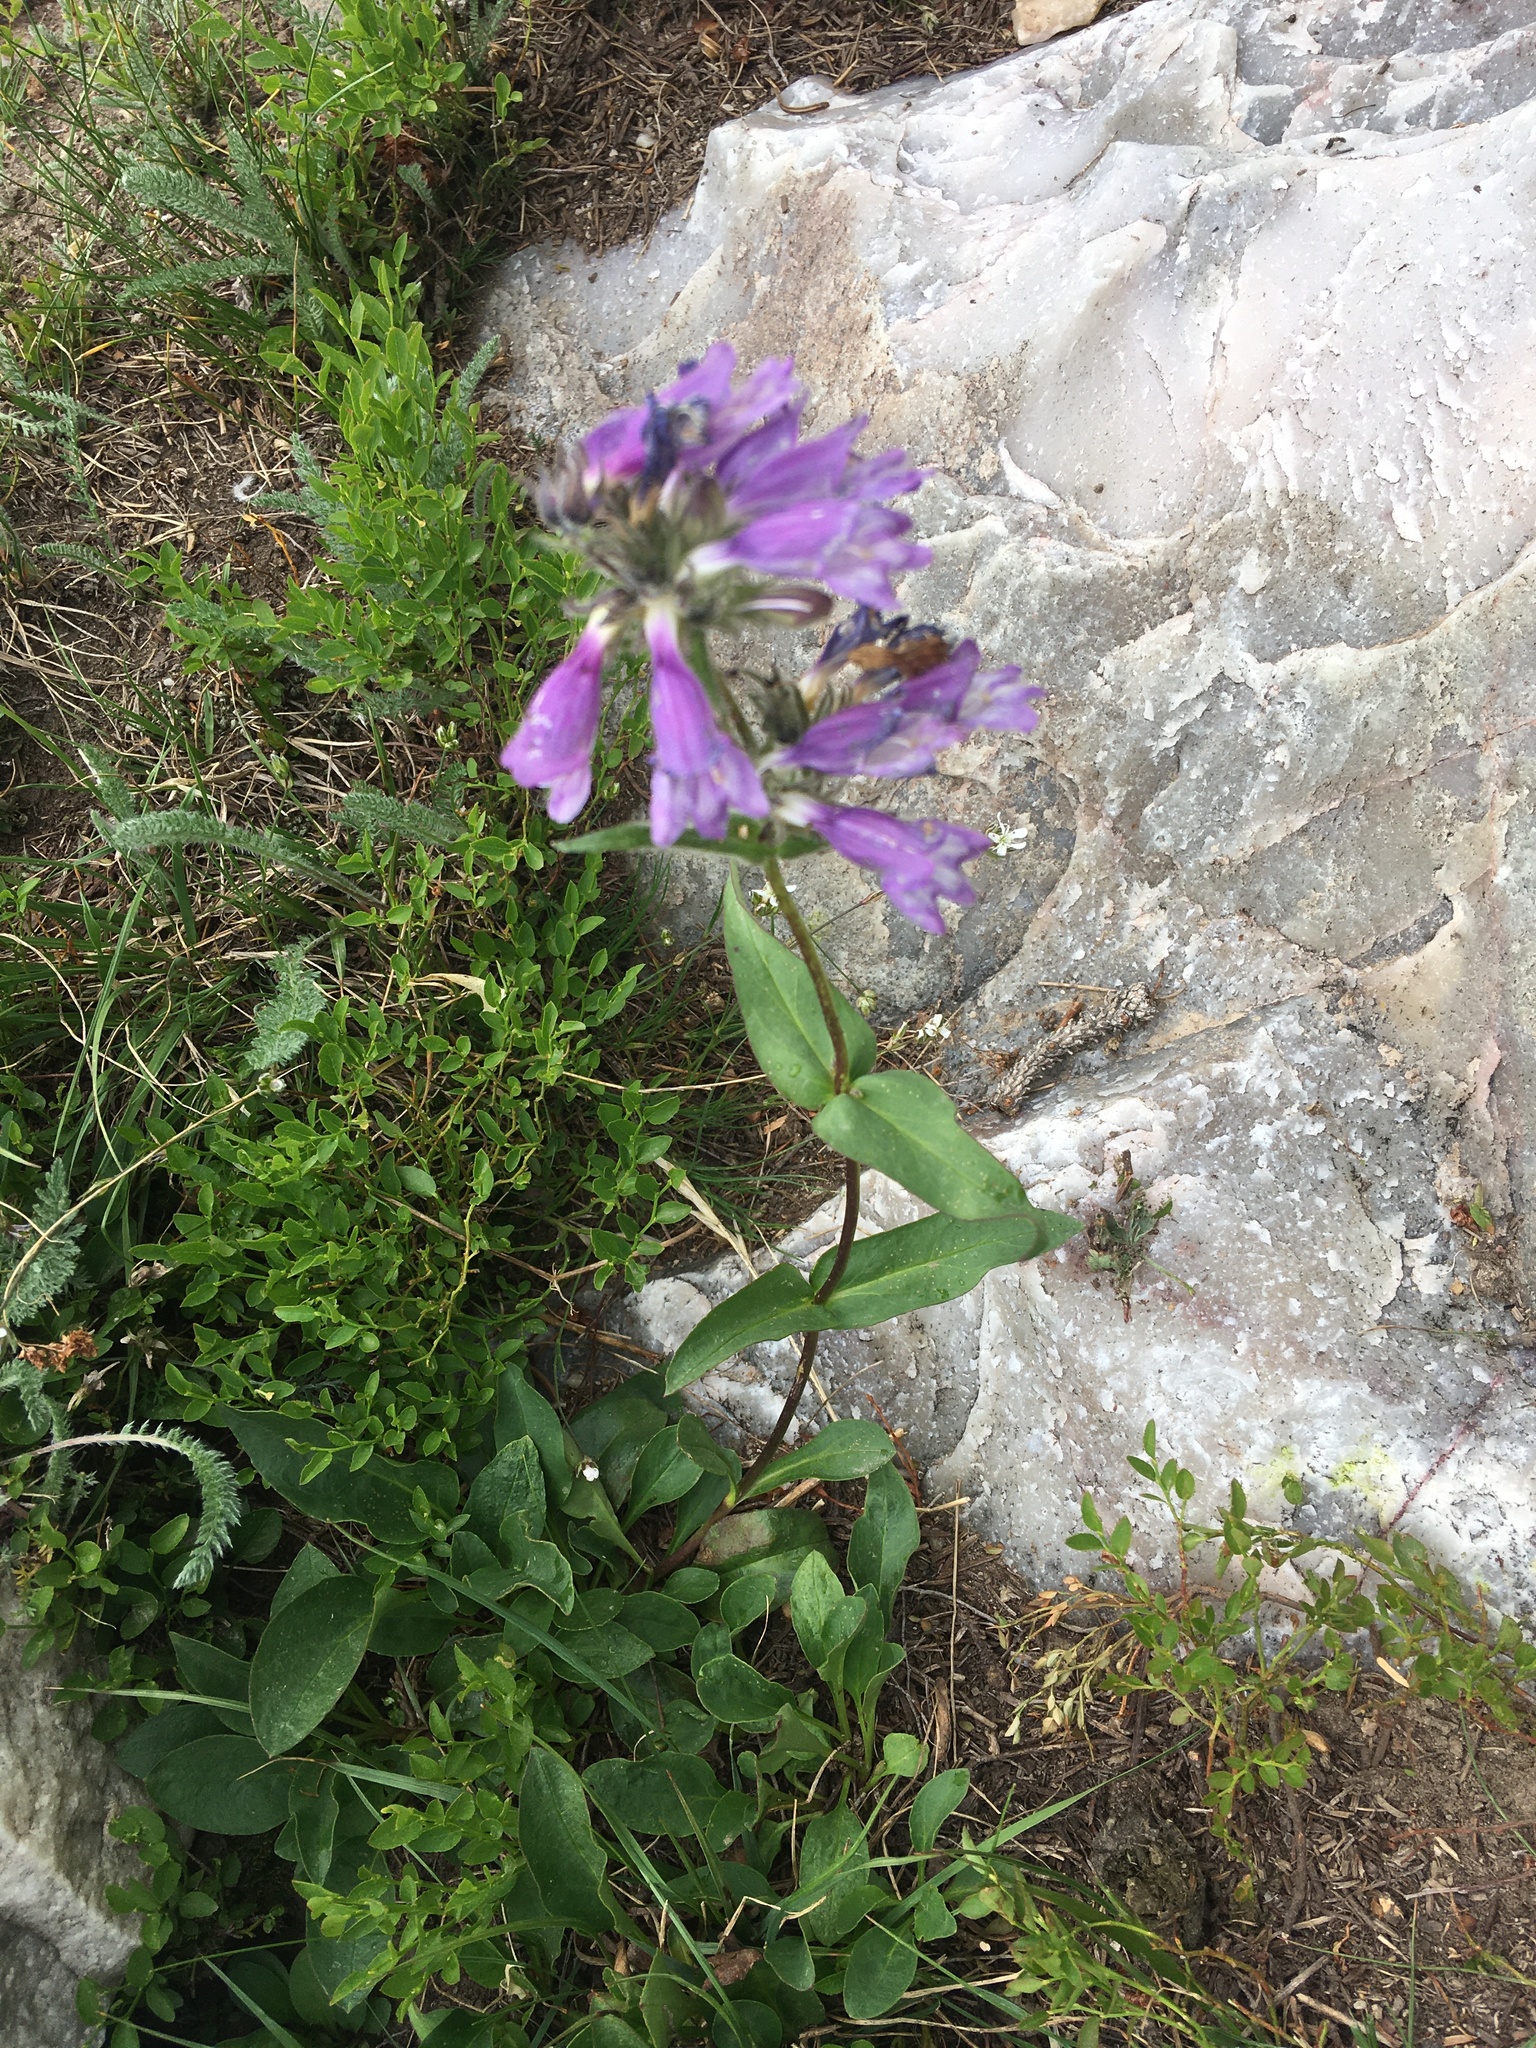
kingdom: Plantae
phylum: Tracheophyta
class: Magnoliopsida
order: Lamiales
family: Plantaginaceae
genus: Penstemon
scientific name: Penstemon whippleanus
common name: Whipple's penstemon
